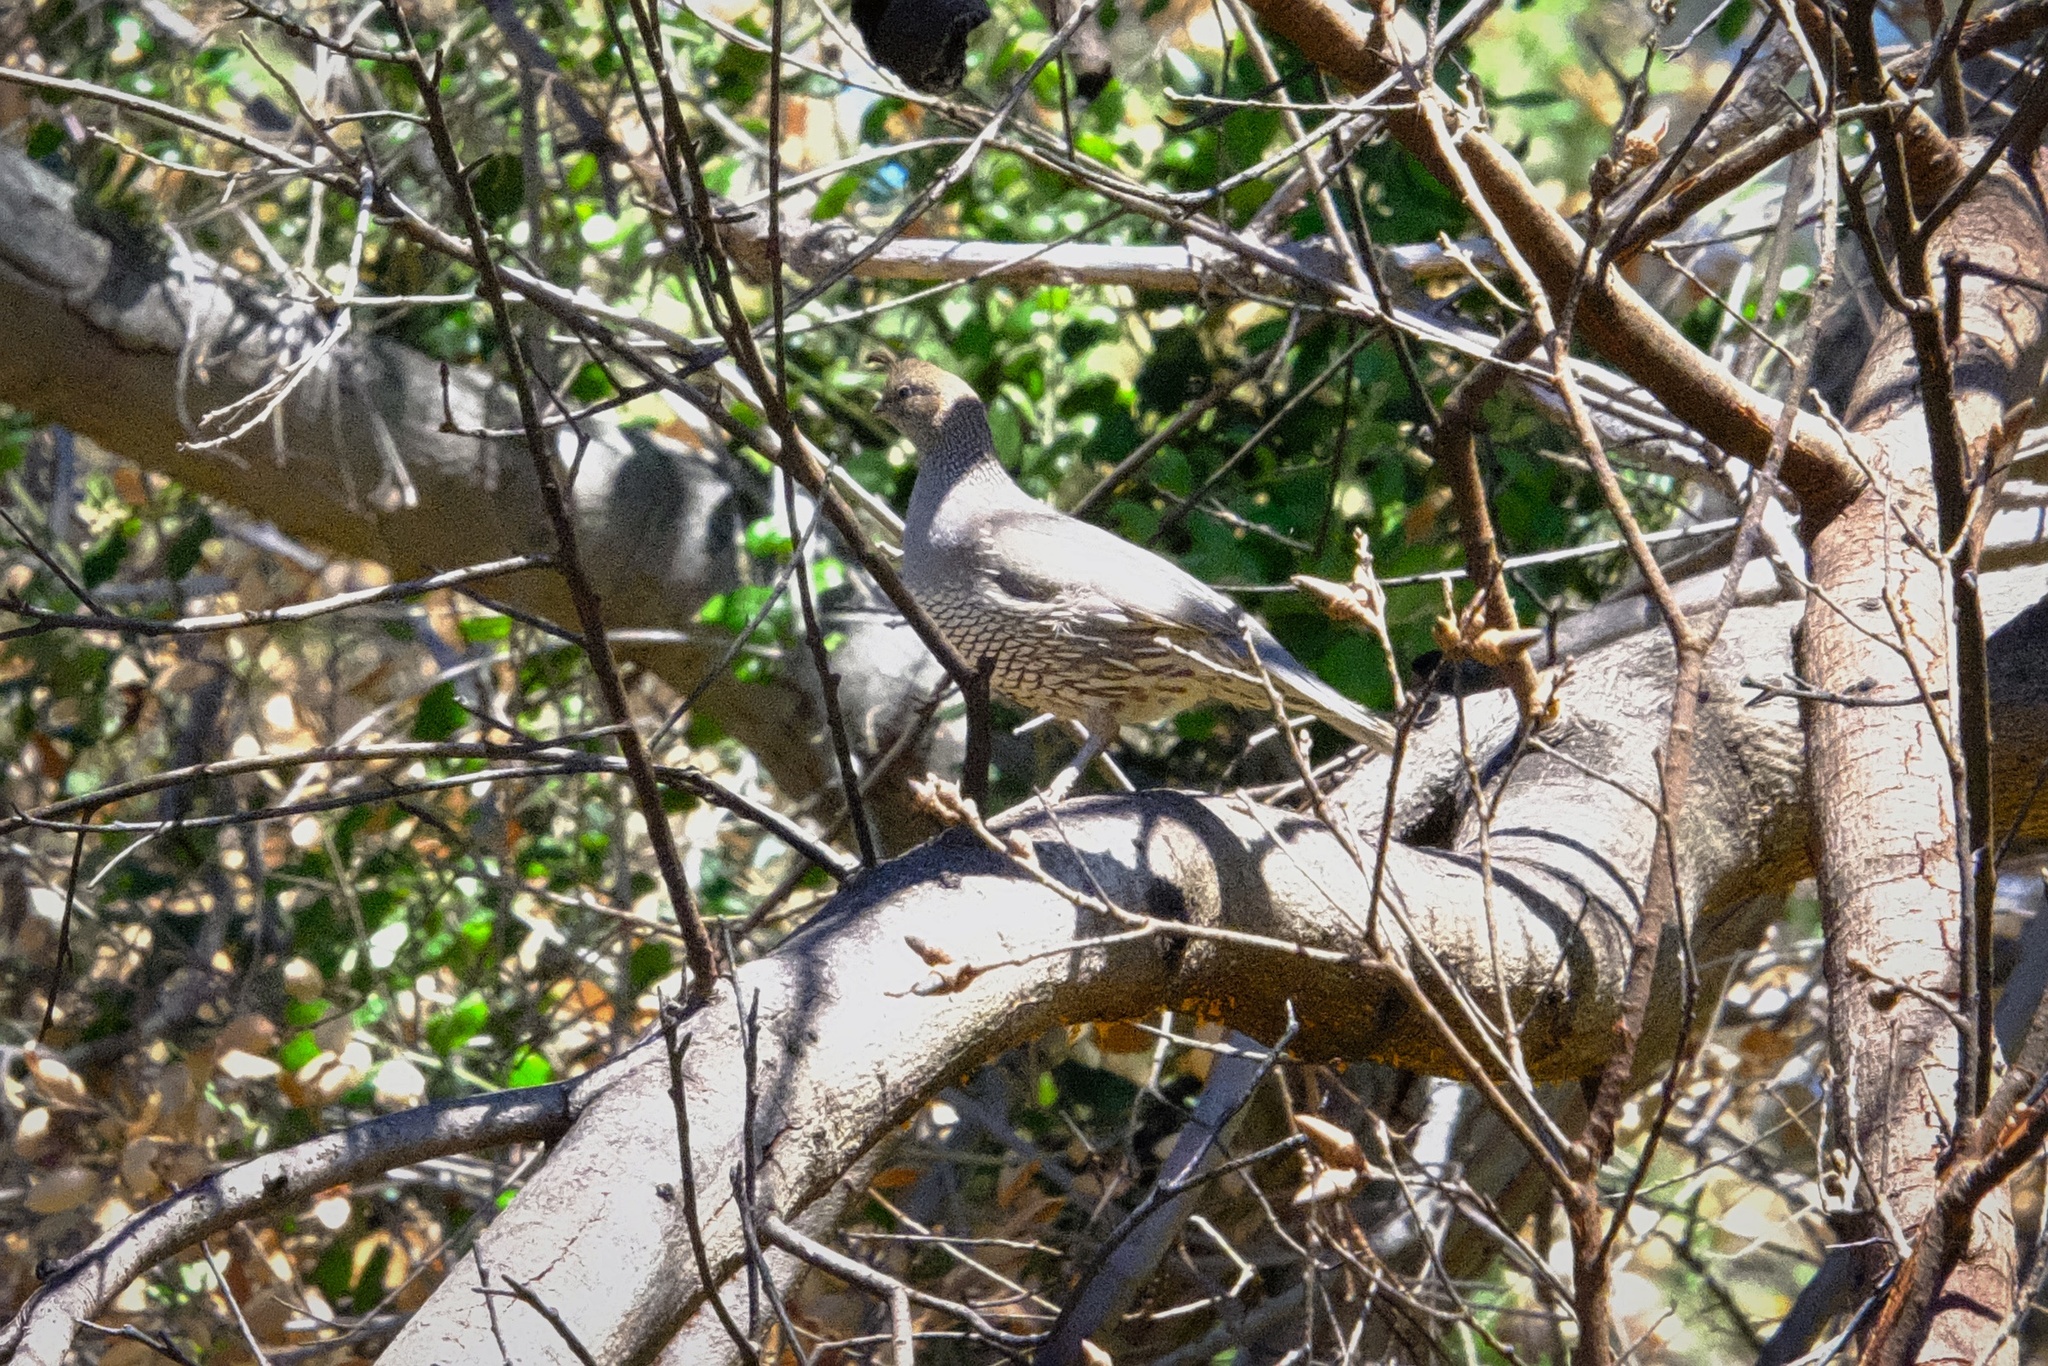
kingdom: Animalia
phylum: Chordata
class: Aves
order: Galliformes
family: Odontophoridae
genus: Callipepla
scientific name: Callipepla californica
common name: California quail
